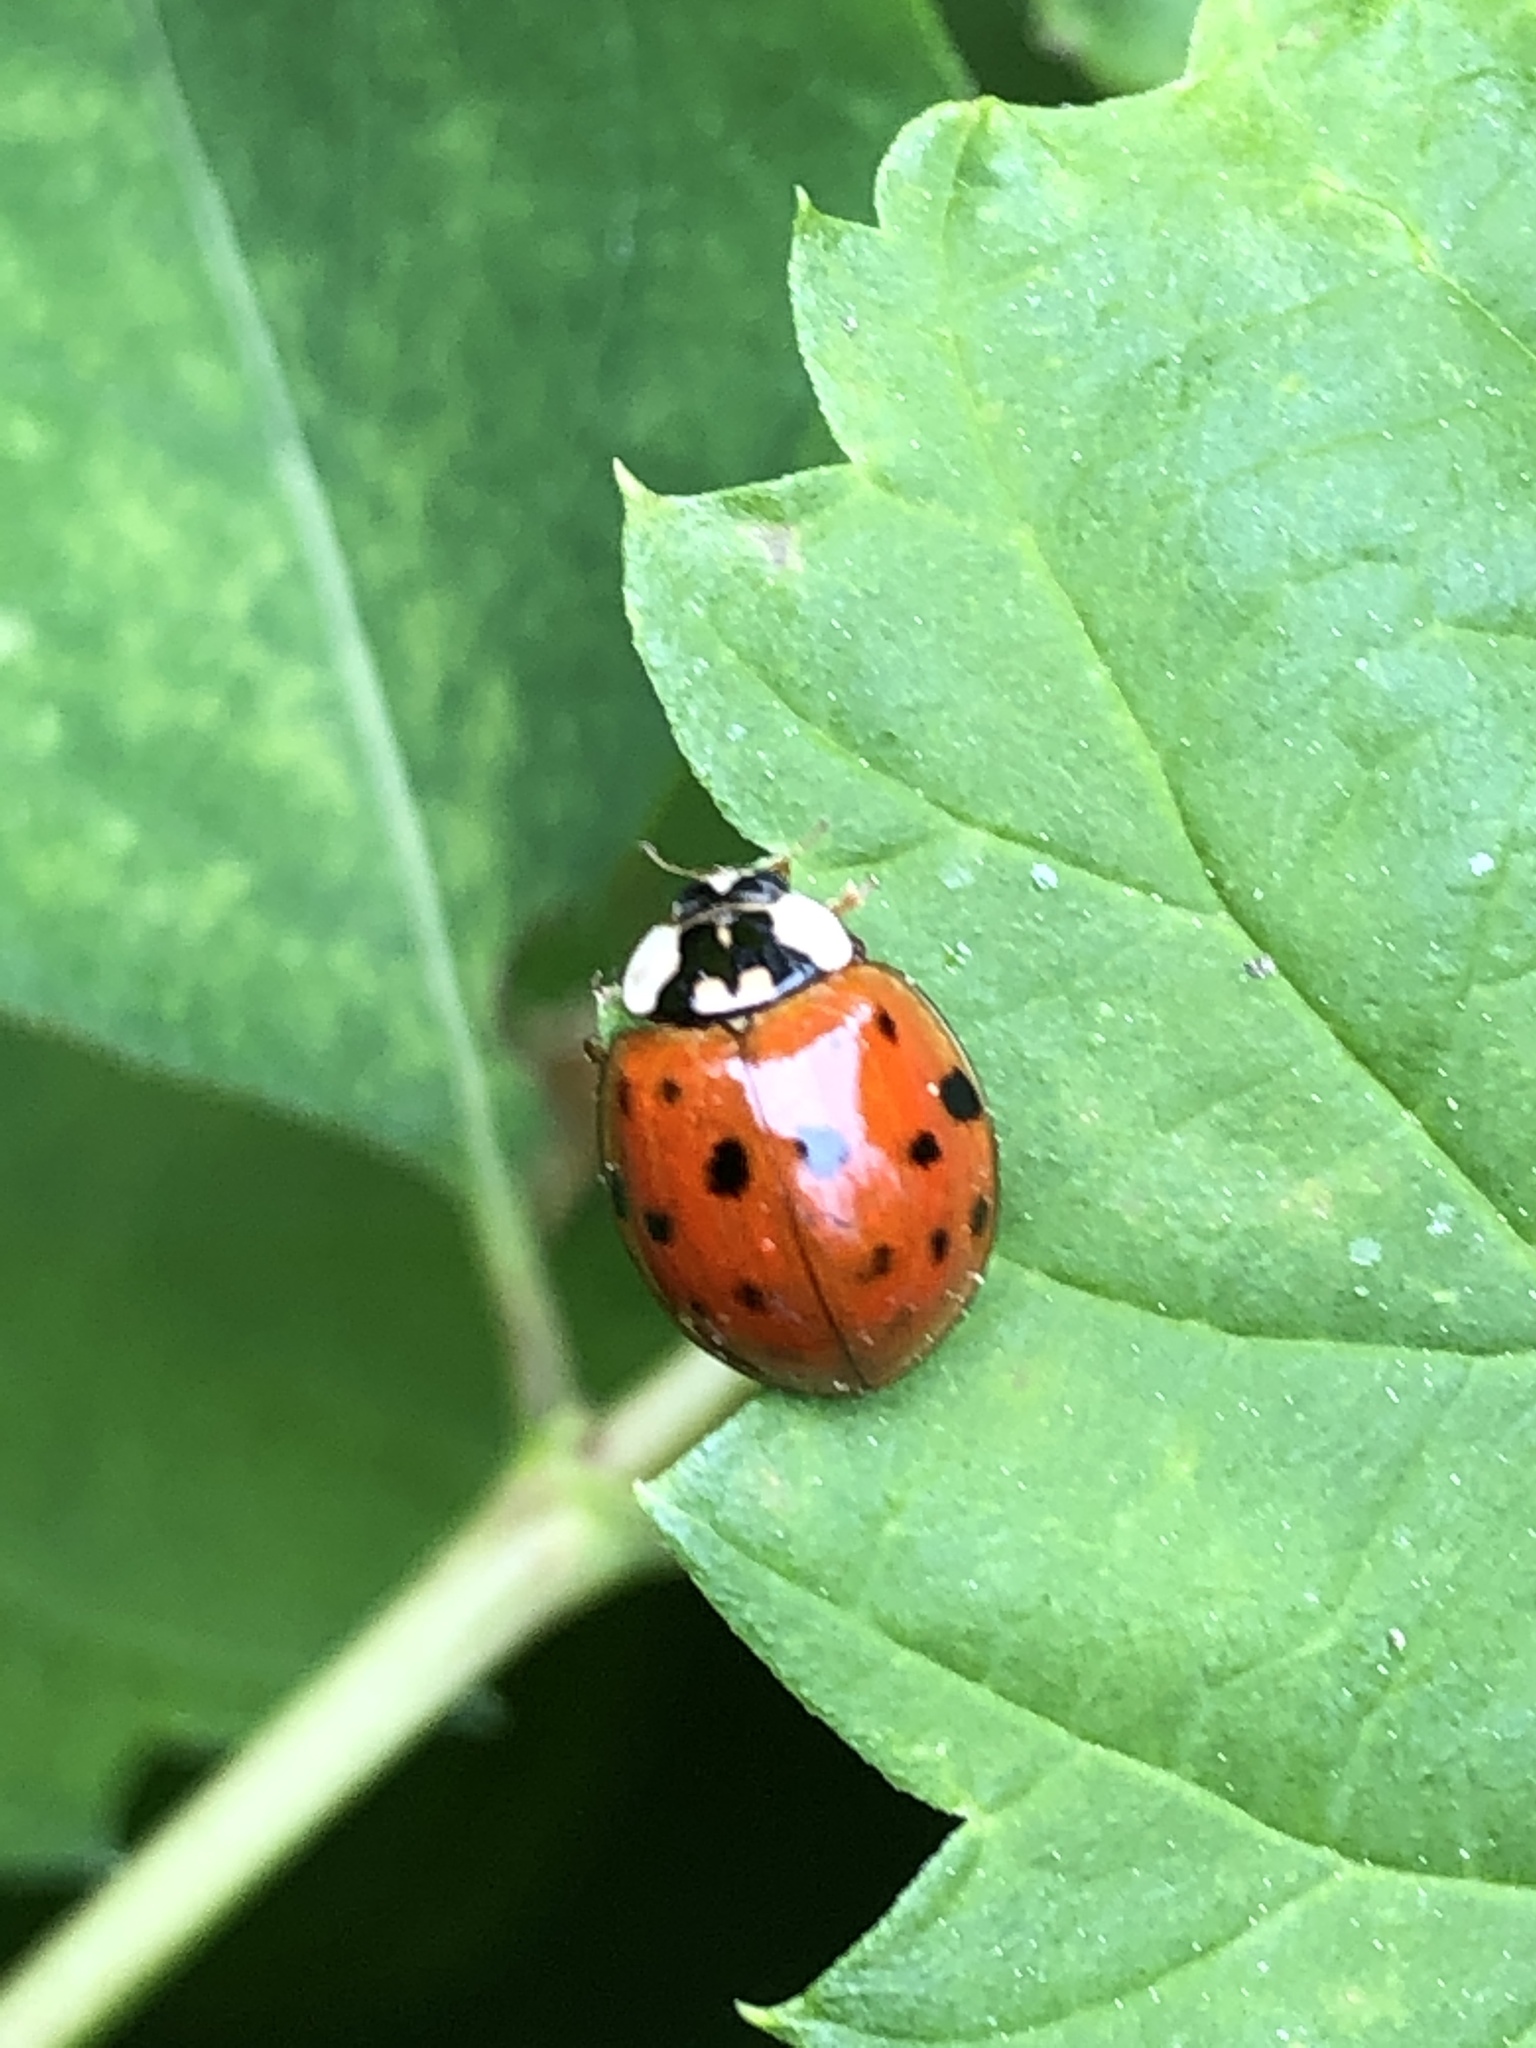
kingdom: Animalia
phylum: Arthropoda
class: Insecta
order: Coleoptera
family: Coccinellidae
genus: Harmonia
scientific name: Harmonia axyridis
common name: Harlequin ladybird
